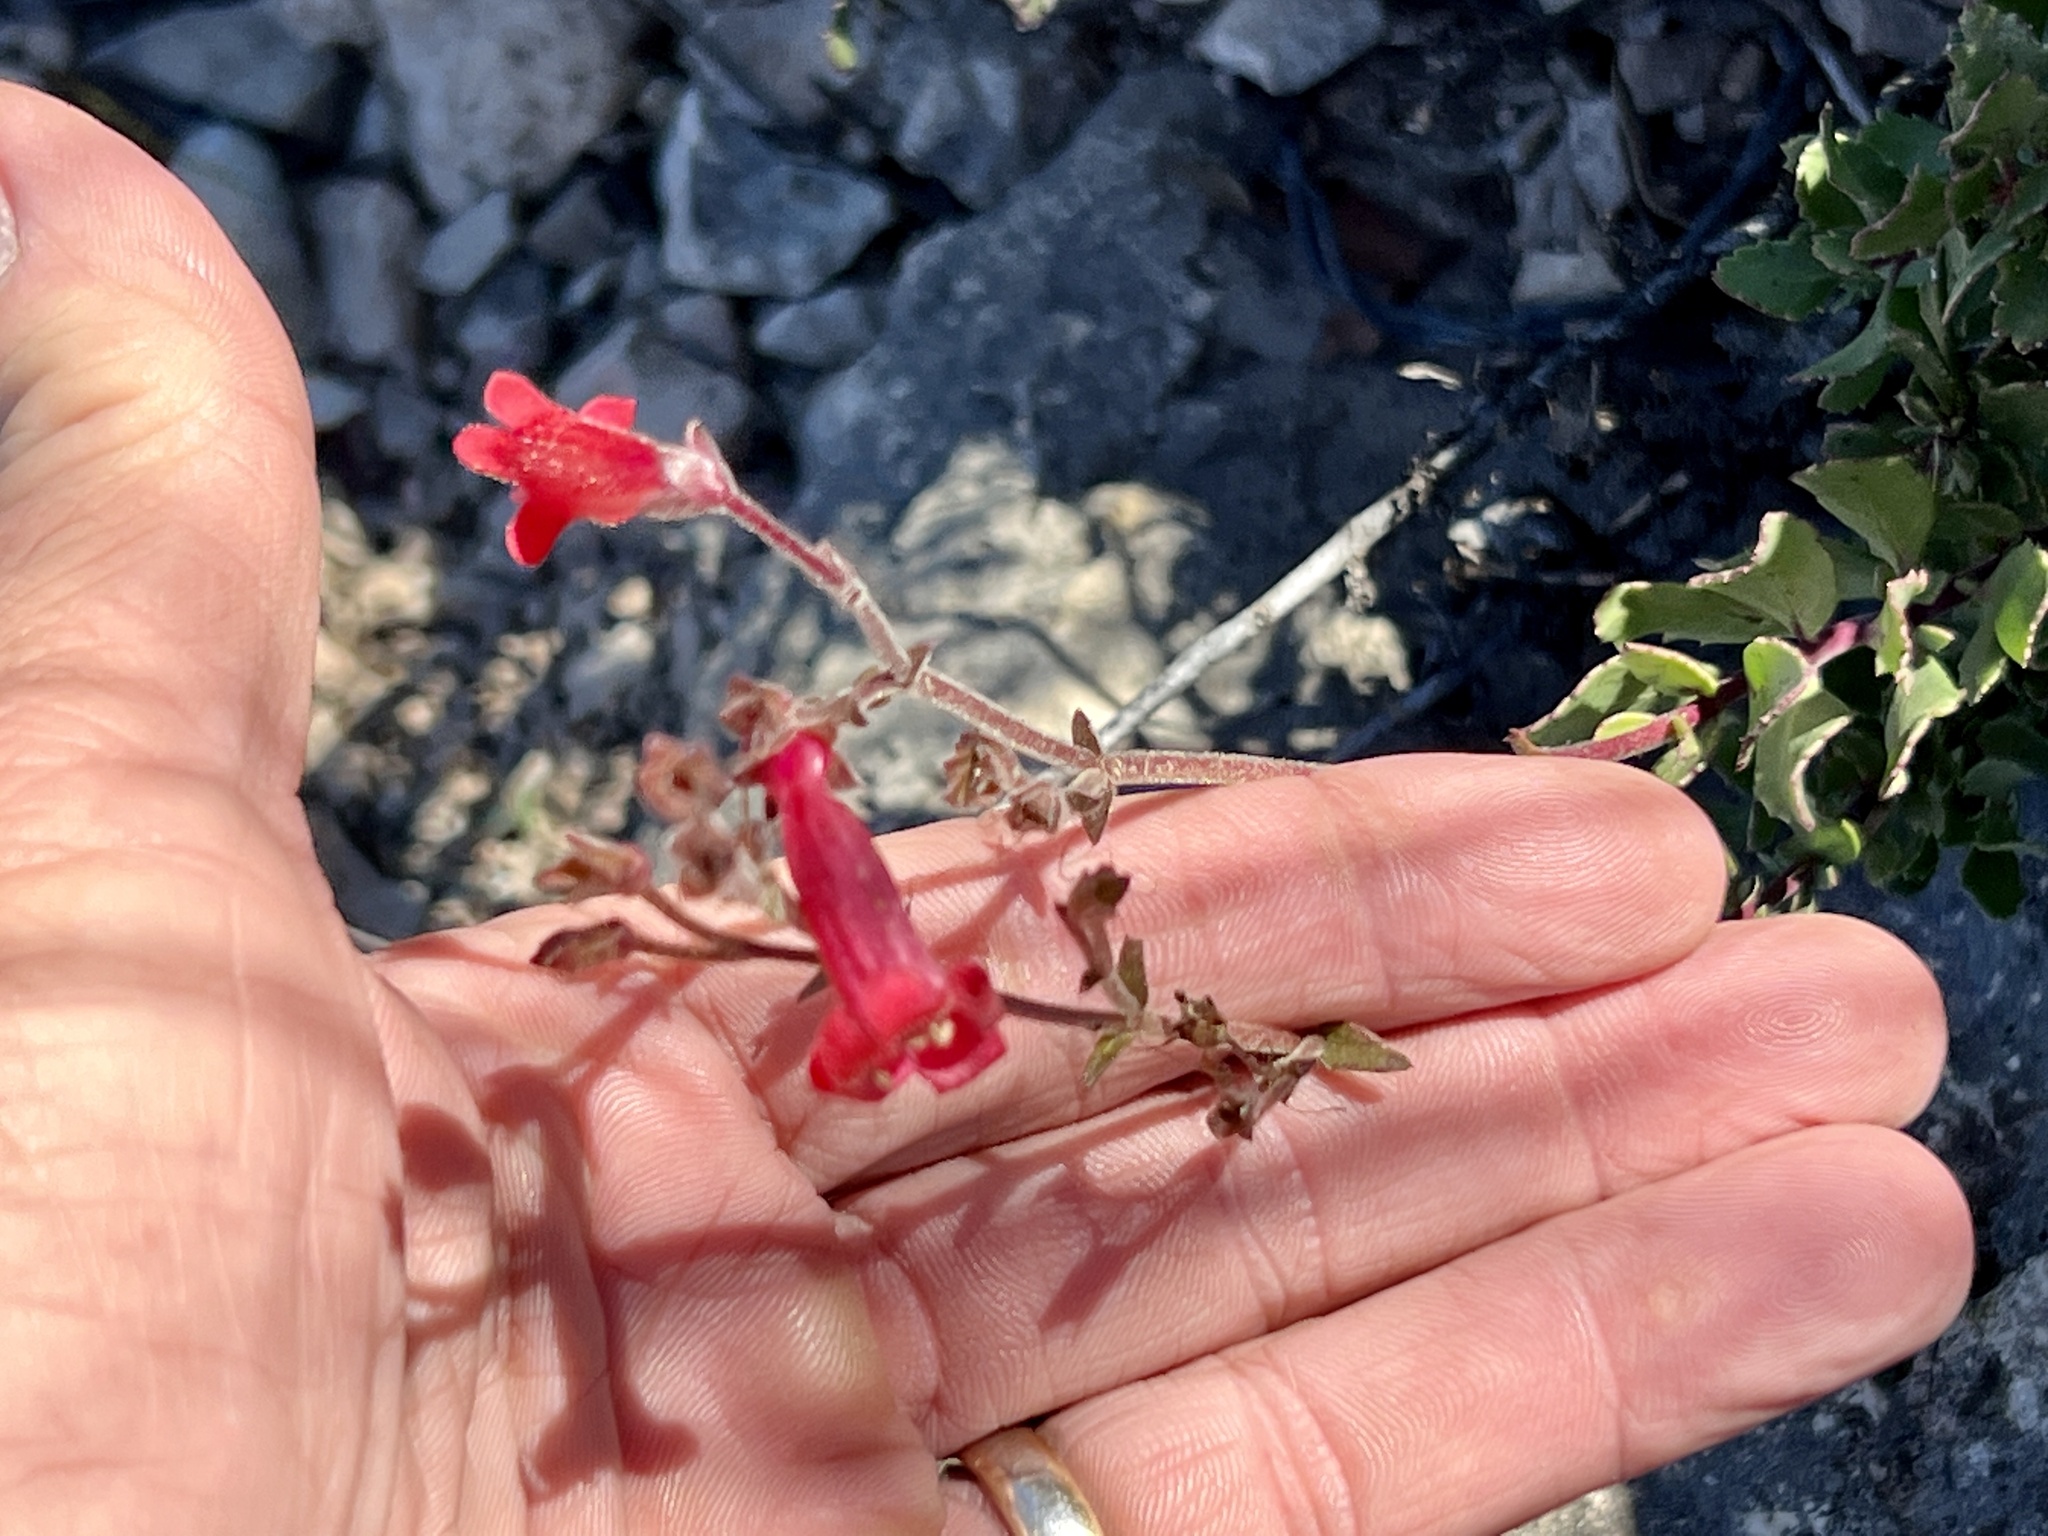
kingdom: Plantae
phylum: Tracheophyta
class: Magnoliopsida
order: Lamiales
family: Plantaginaceae
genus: Penstemon
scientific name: Penstemon baccharifolius
